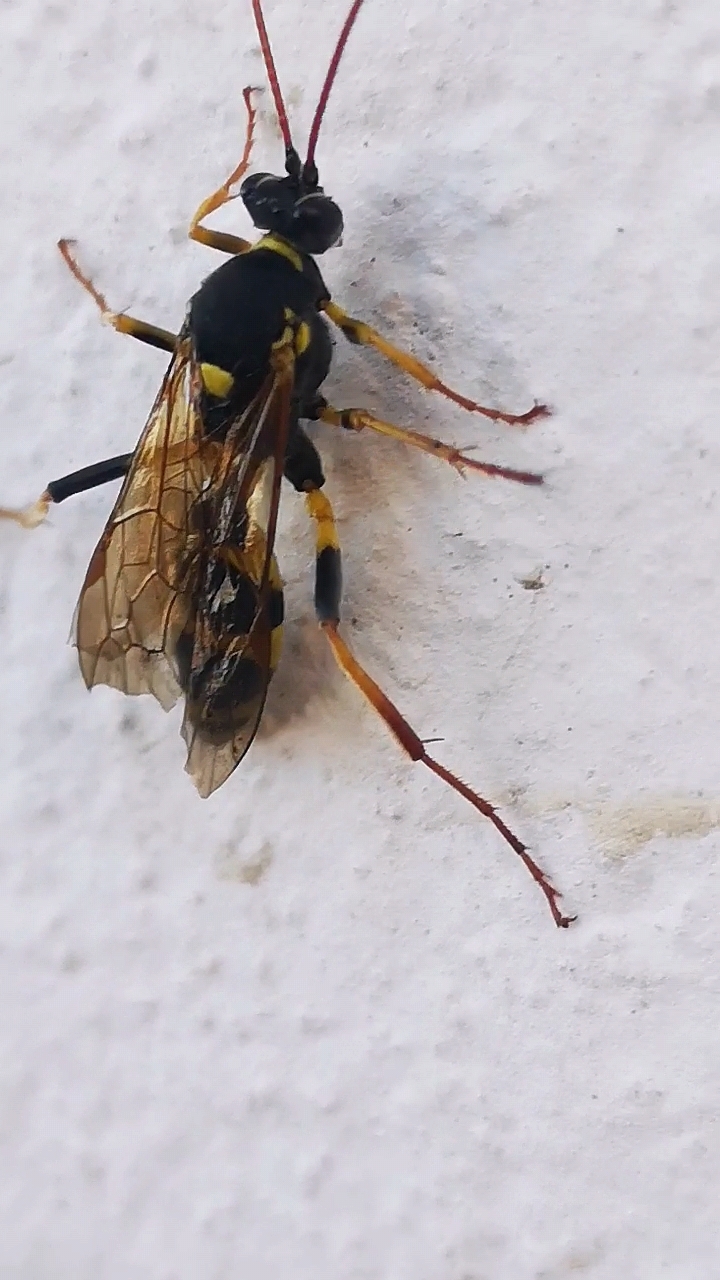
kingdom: Animalia
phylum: Arthropoda
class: Insecta
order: Hymenoptera
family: Ichneumonidae
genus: Amblyteles
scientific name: Amblyteles armatorius
